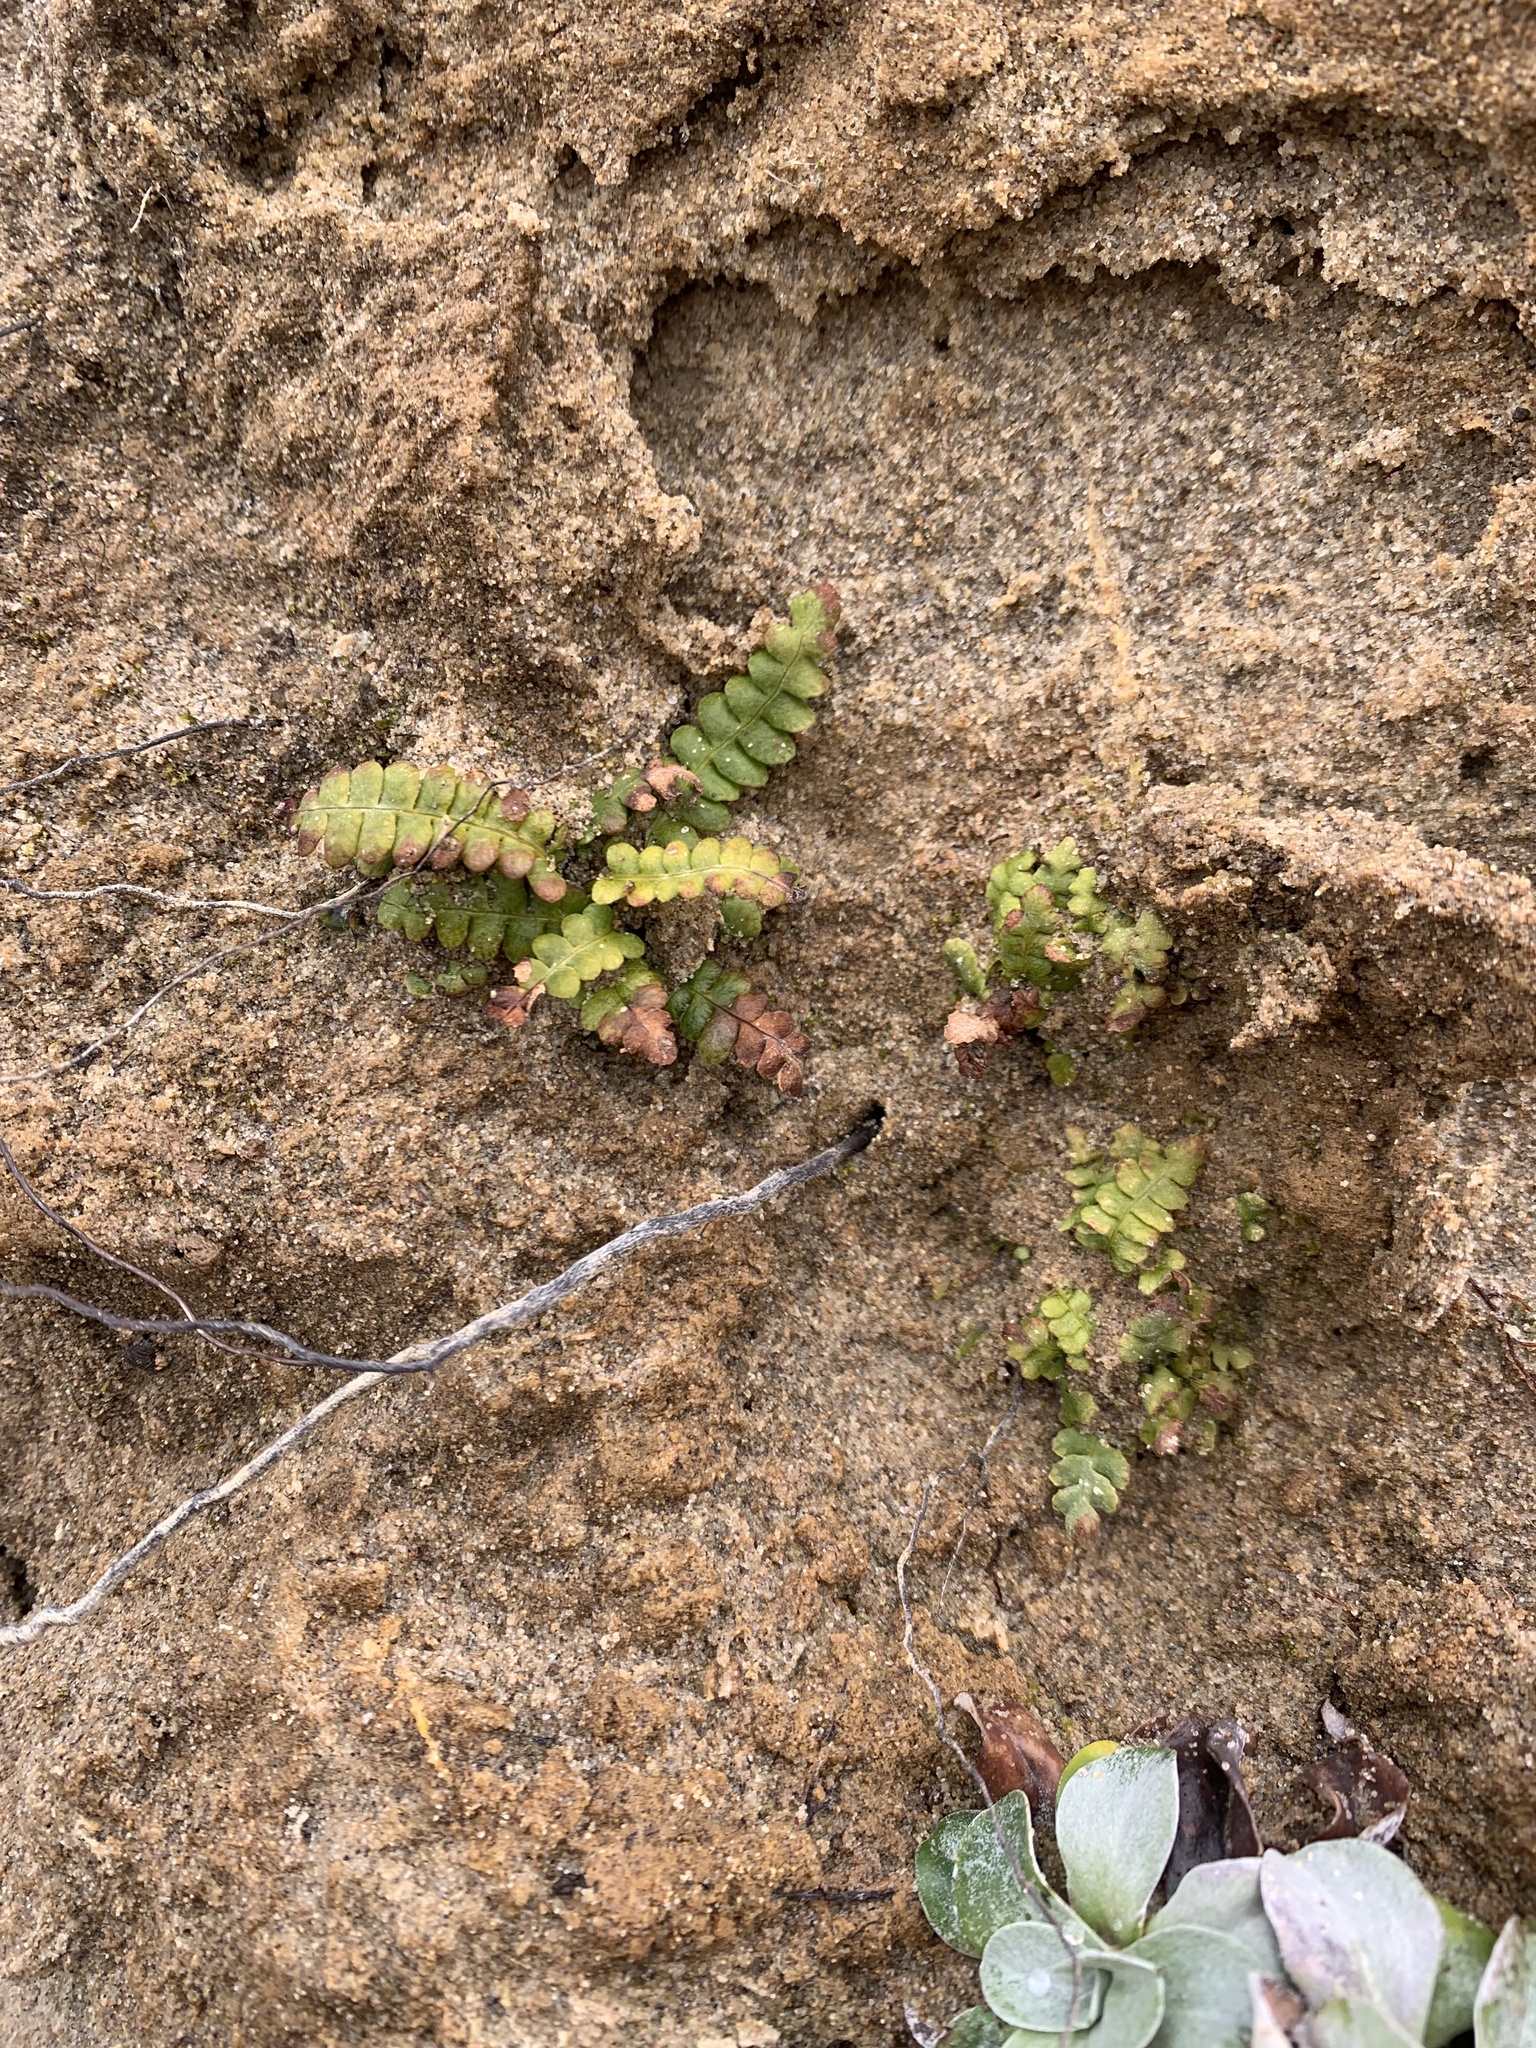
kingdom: Plantae
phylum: Tracheophyta
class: Polypodiopsida
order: Polypodiales
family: Blechnaceae
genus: Struthiopteris
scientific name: Struthiopteris spicant
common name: Deer fern
